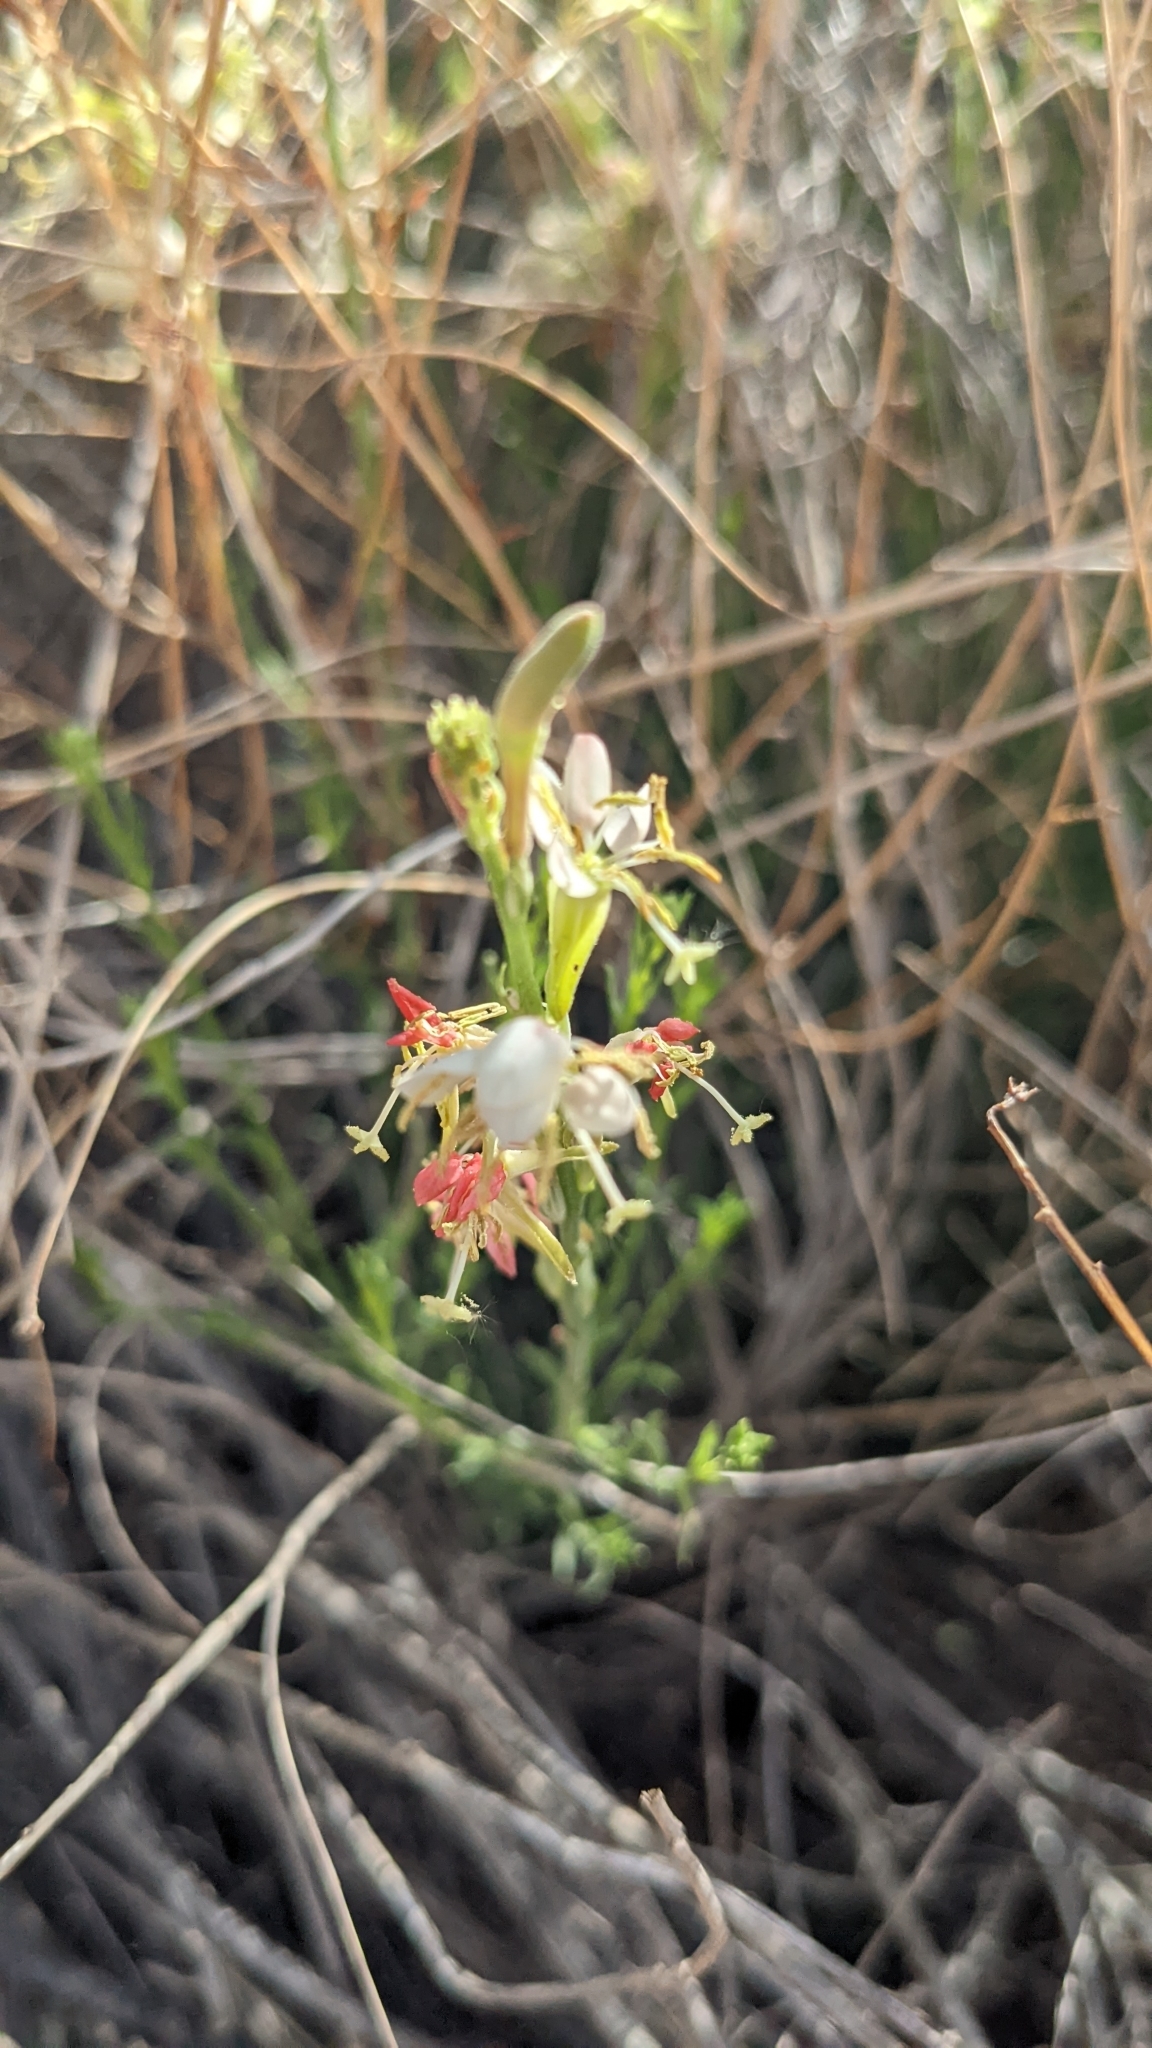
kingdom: Plantae
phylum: Tracheophyta
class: Magnoliopsida
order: Myrtales
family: Onagraceae
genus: Oenothera
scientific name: Oenothera suffrutescens
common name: Scarlet beeblossom
